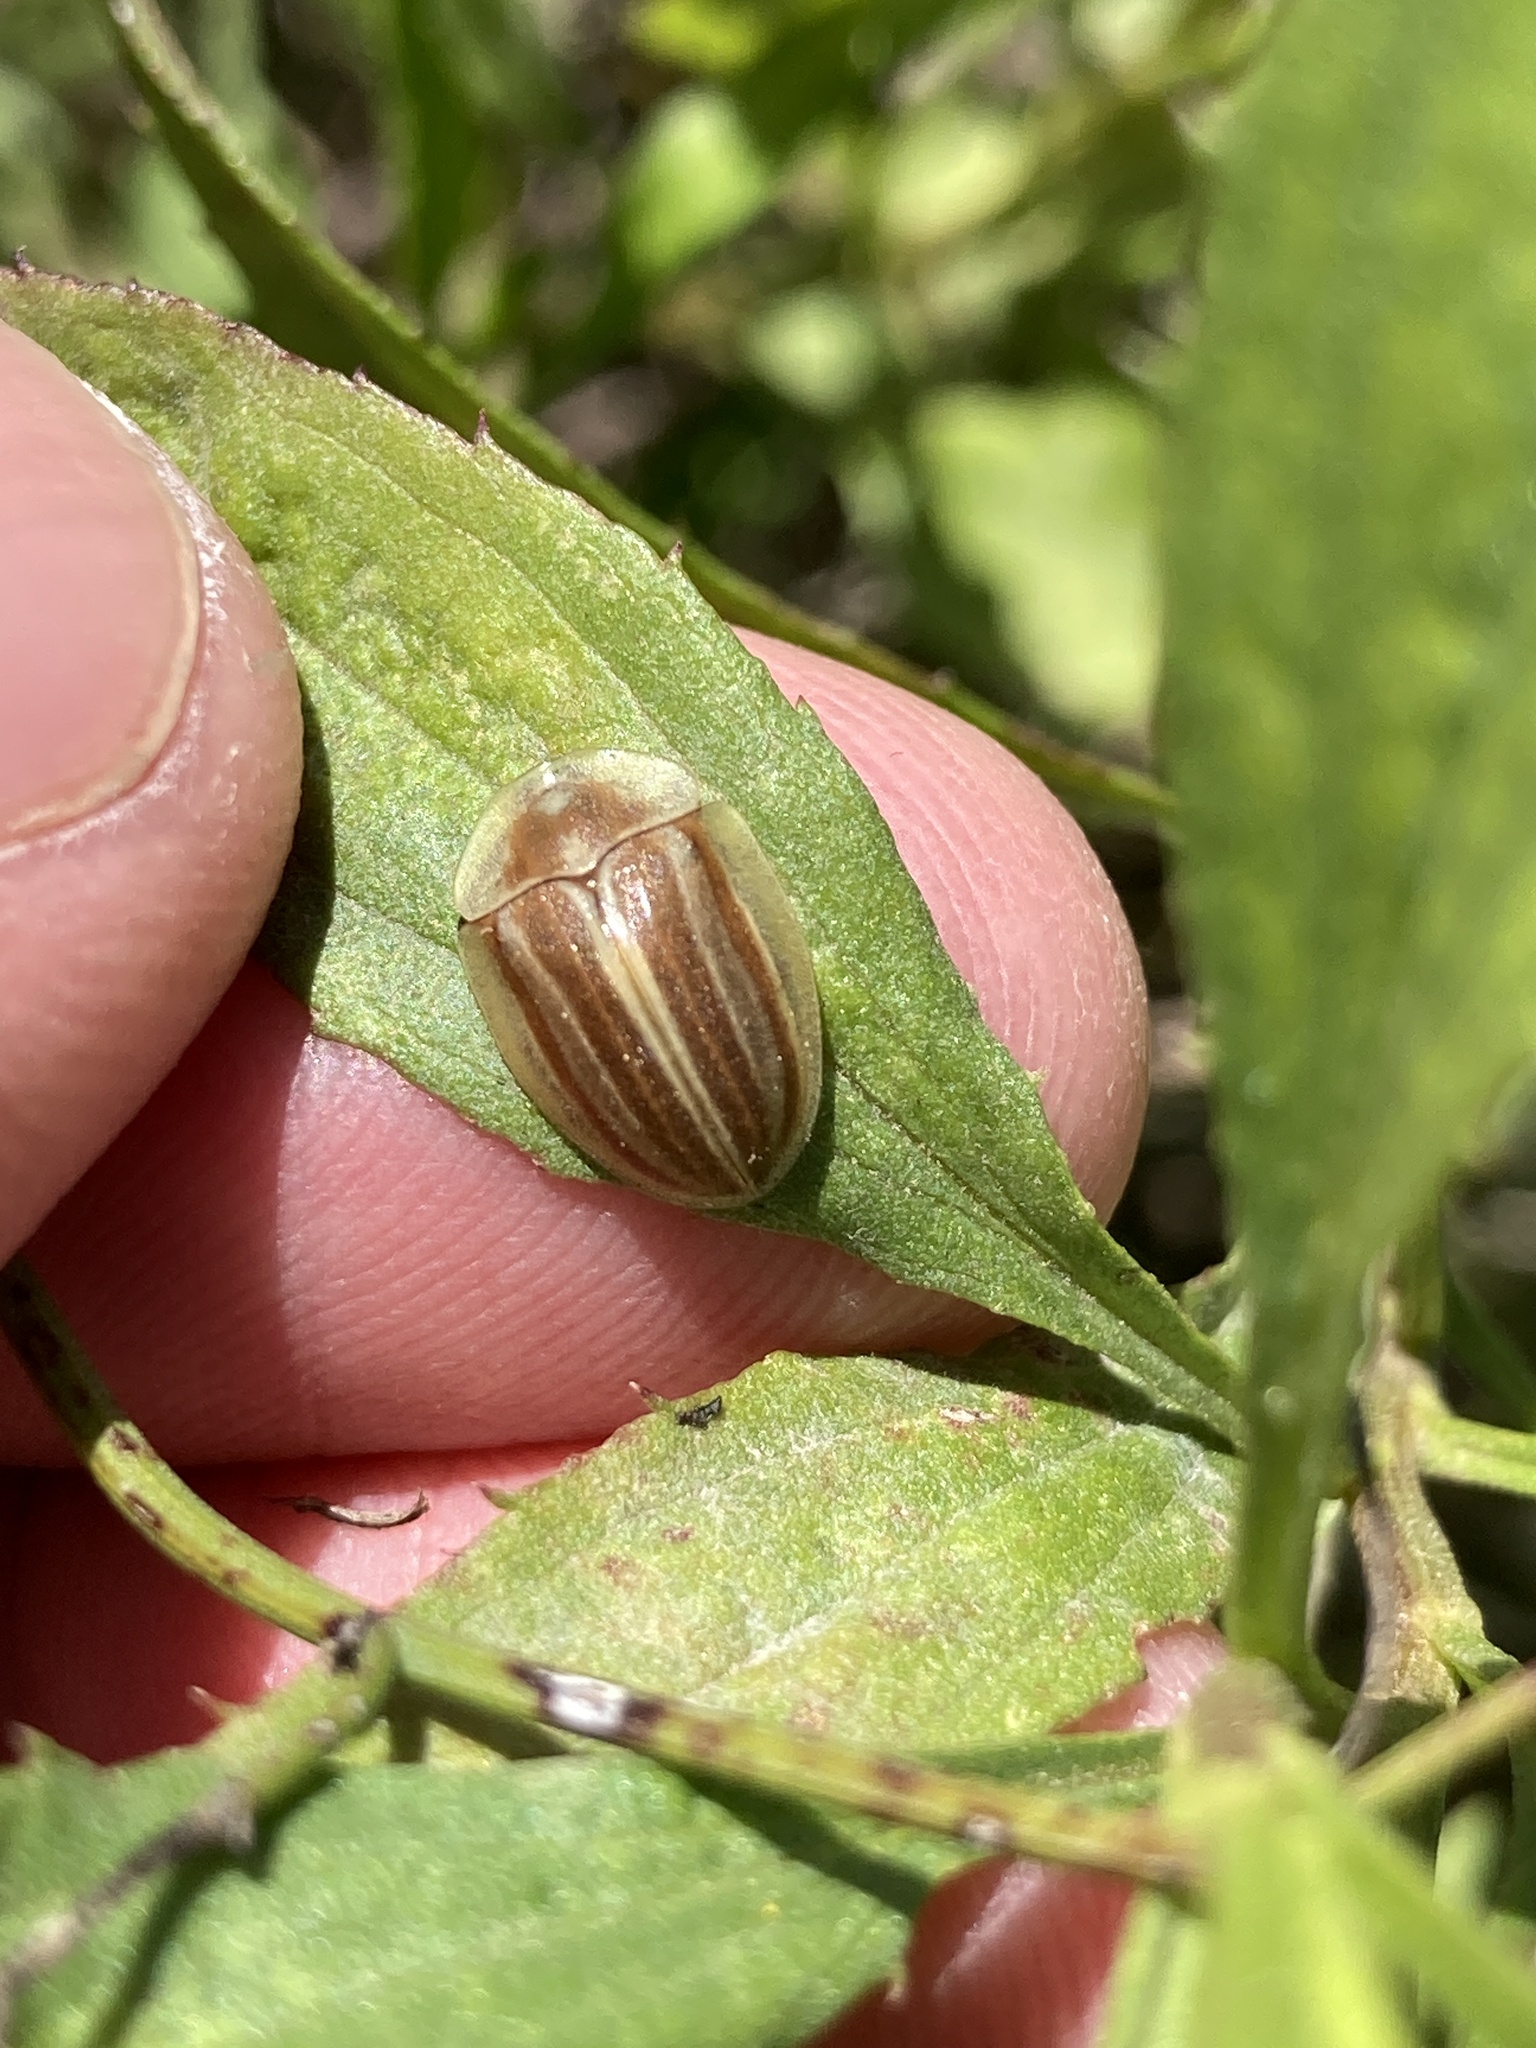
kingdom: Animalia
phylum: Arthropoda
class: Insecta
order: Coleoptera
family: Chrysomelidae
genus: Anacassis
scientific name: Anacassis fuscata
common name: Seepwillow flea beetle
